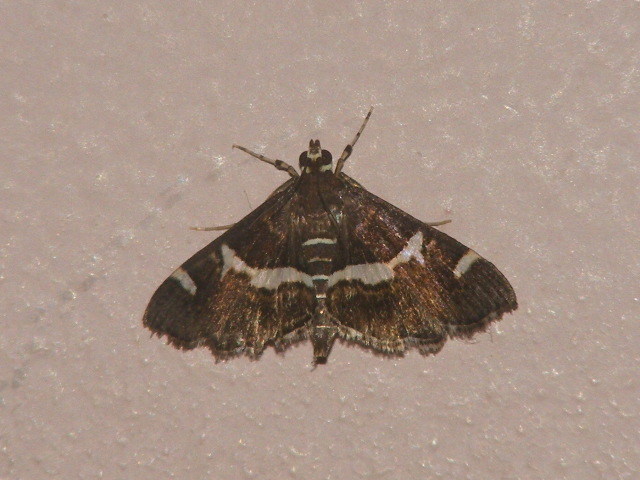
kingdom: Animalia
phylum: Arthropoda
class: Insecta
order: Lepidoptera
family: Crambidae
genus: Spoladea
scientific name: Spoladea recurvalis
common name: Beet webworm moth
